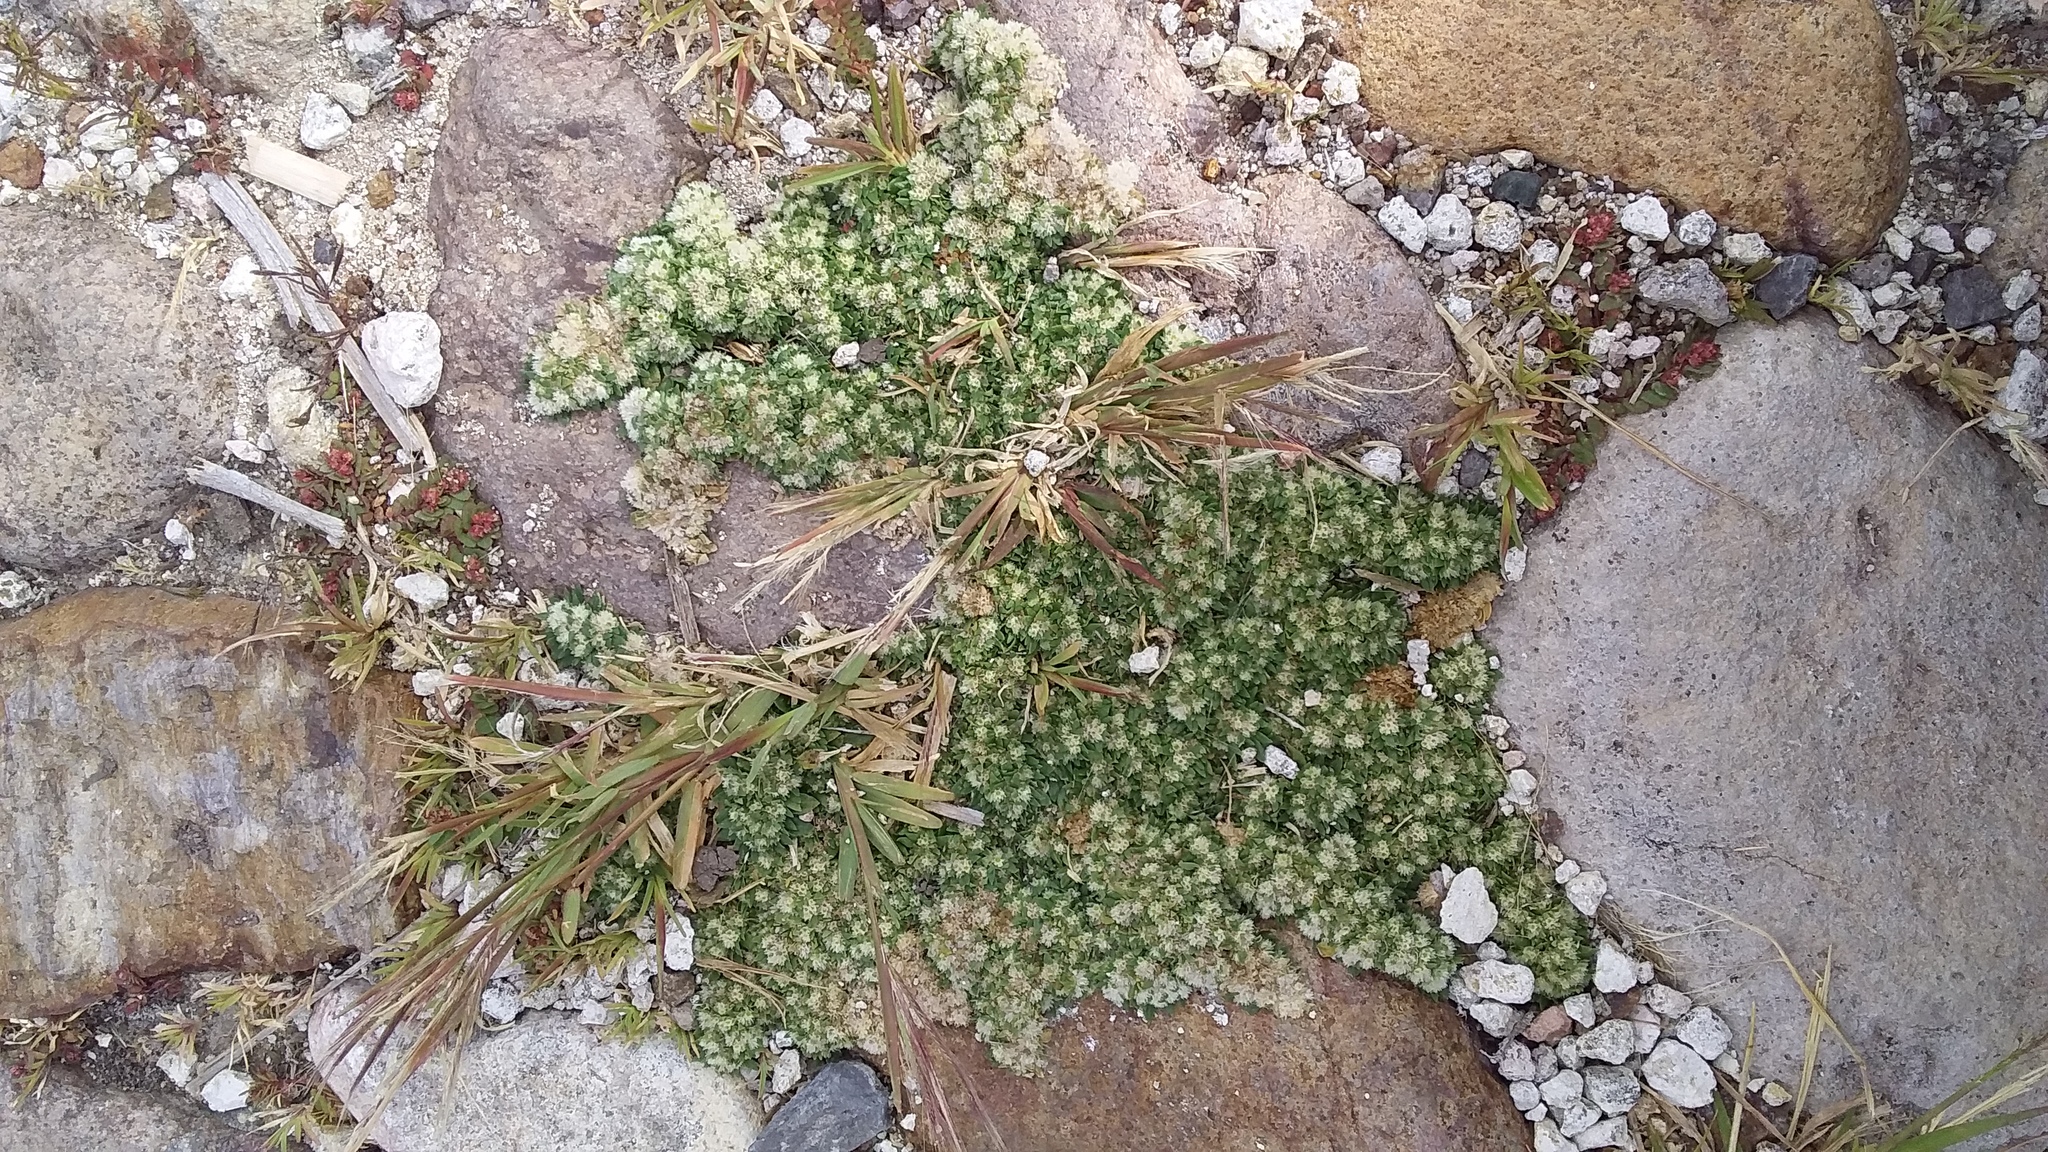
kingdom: Plantae
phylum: Tracheophyta
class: Magnoliopsida
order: Caryophyllales
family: Amaranthaceae
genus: Guilleminea
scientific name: Guilleminea densa
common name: Small matweed
